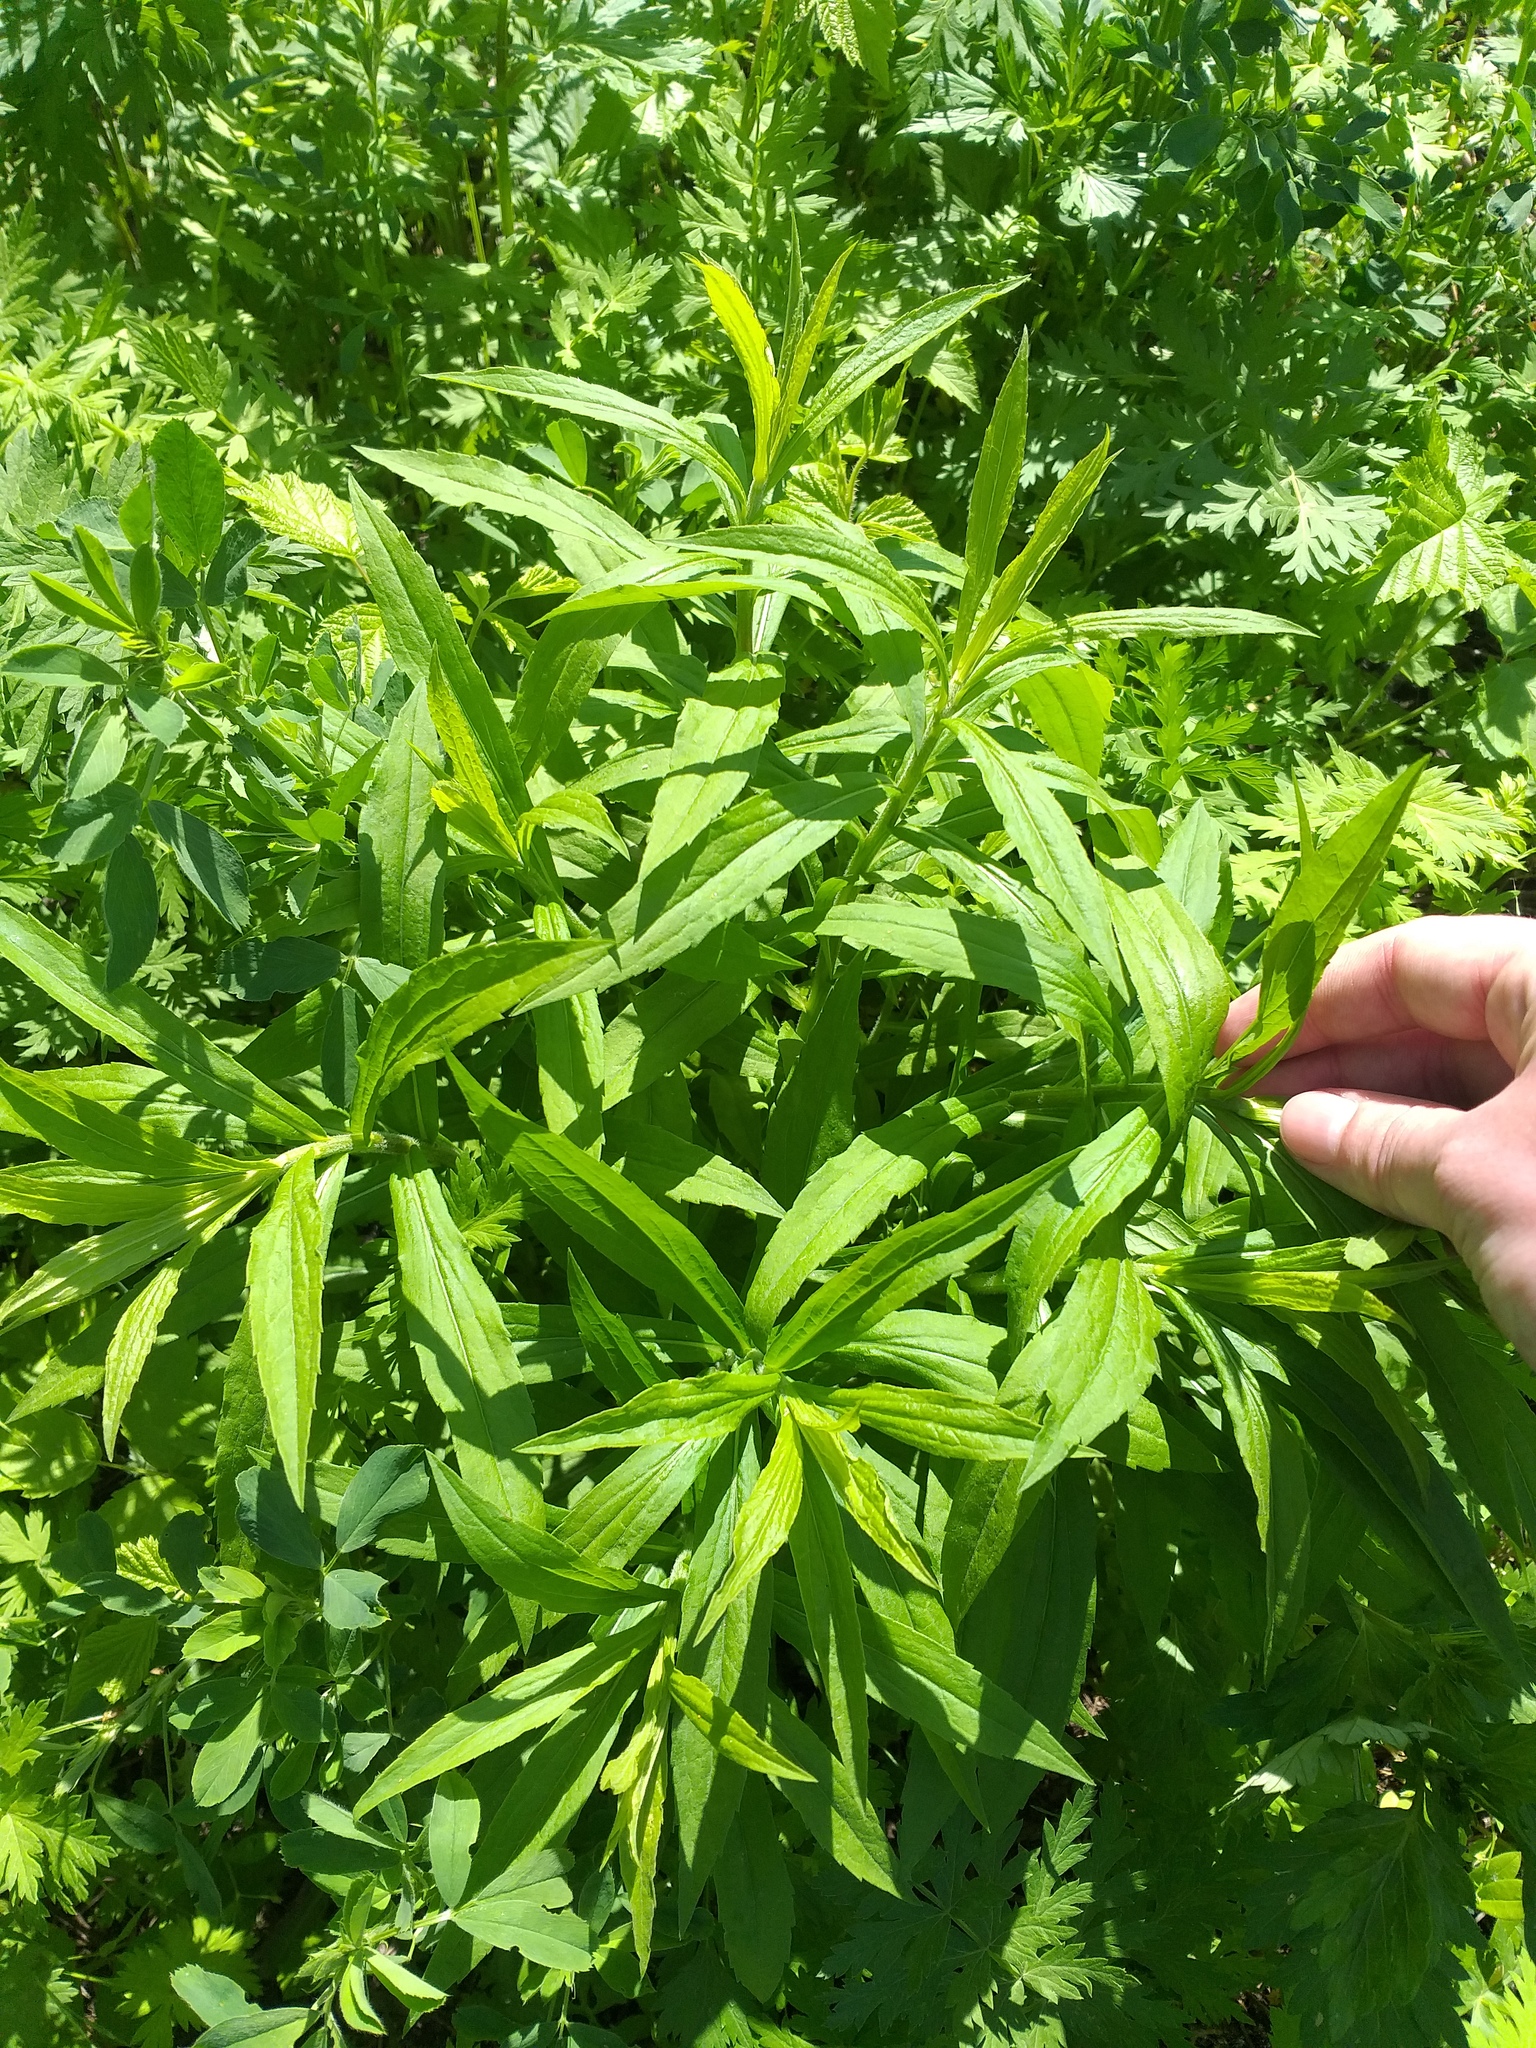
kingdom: Plantae
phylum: Tracheophyta
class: Magnoliopsida
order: Asterales
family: Asteraceae
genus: Solidago
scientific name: Solidago canadensis
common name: Canada goldenrod
